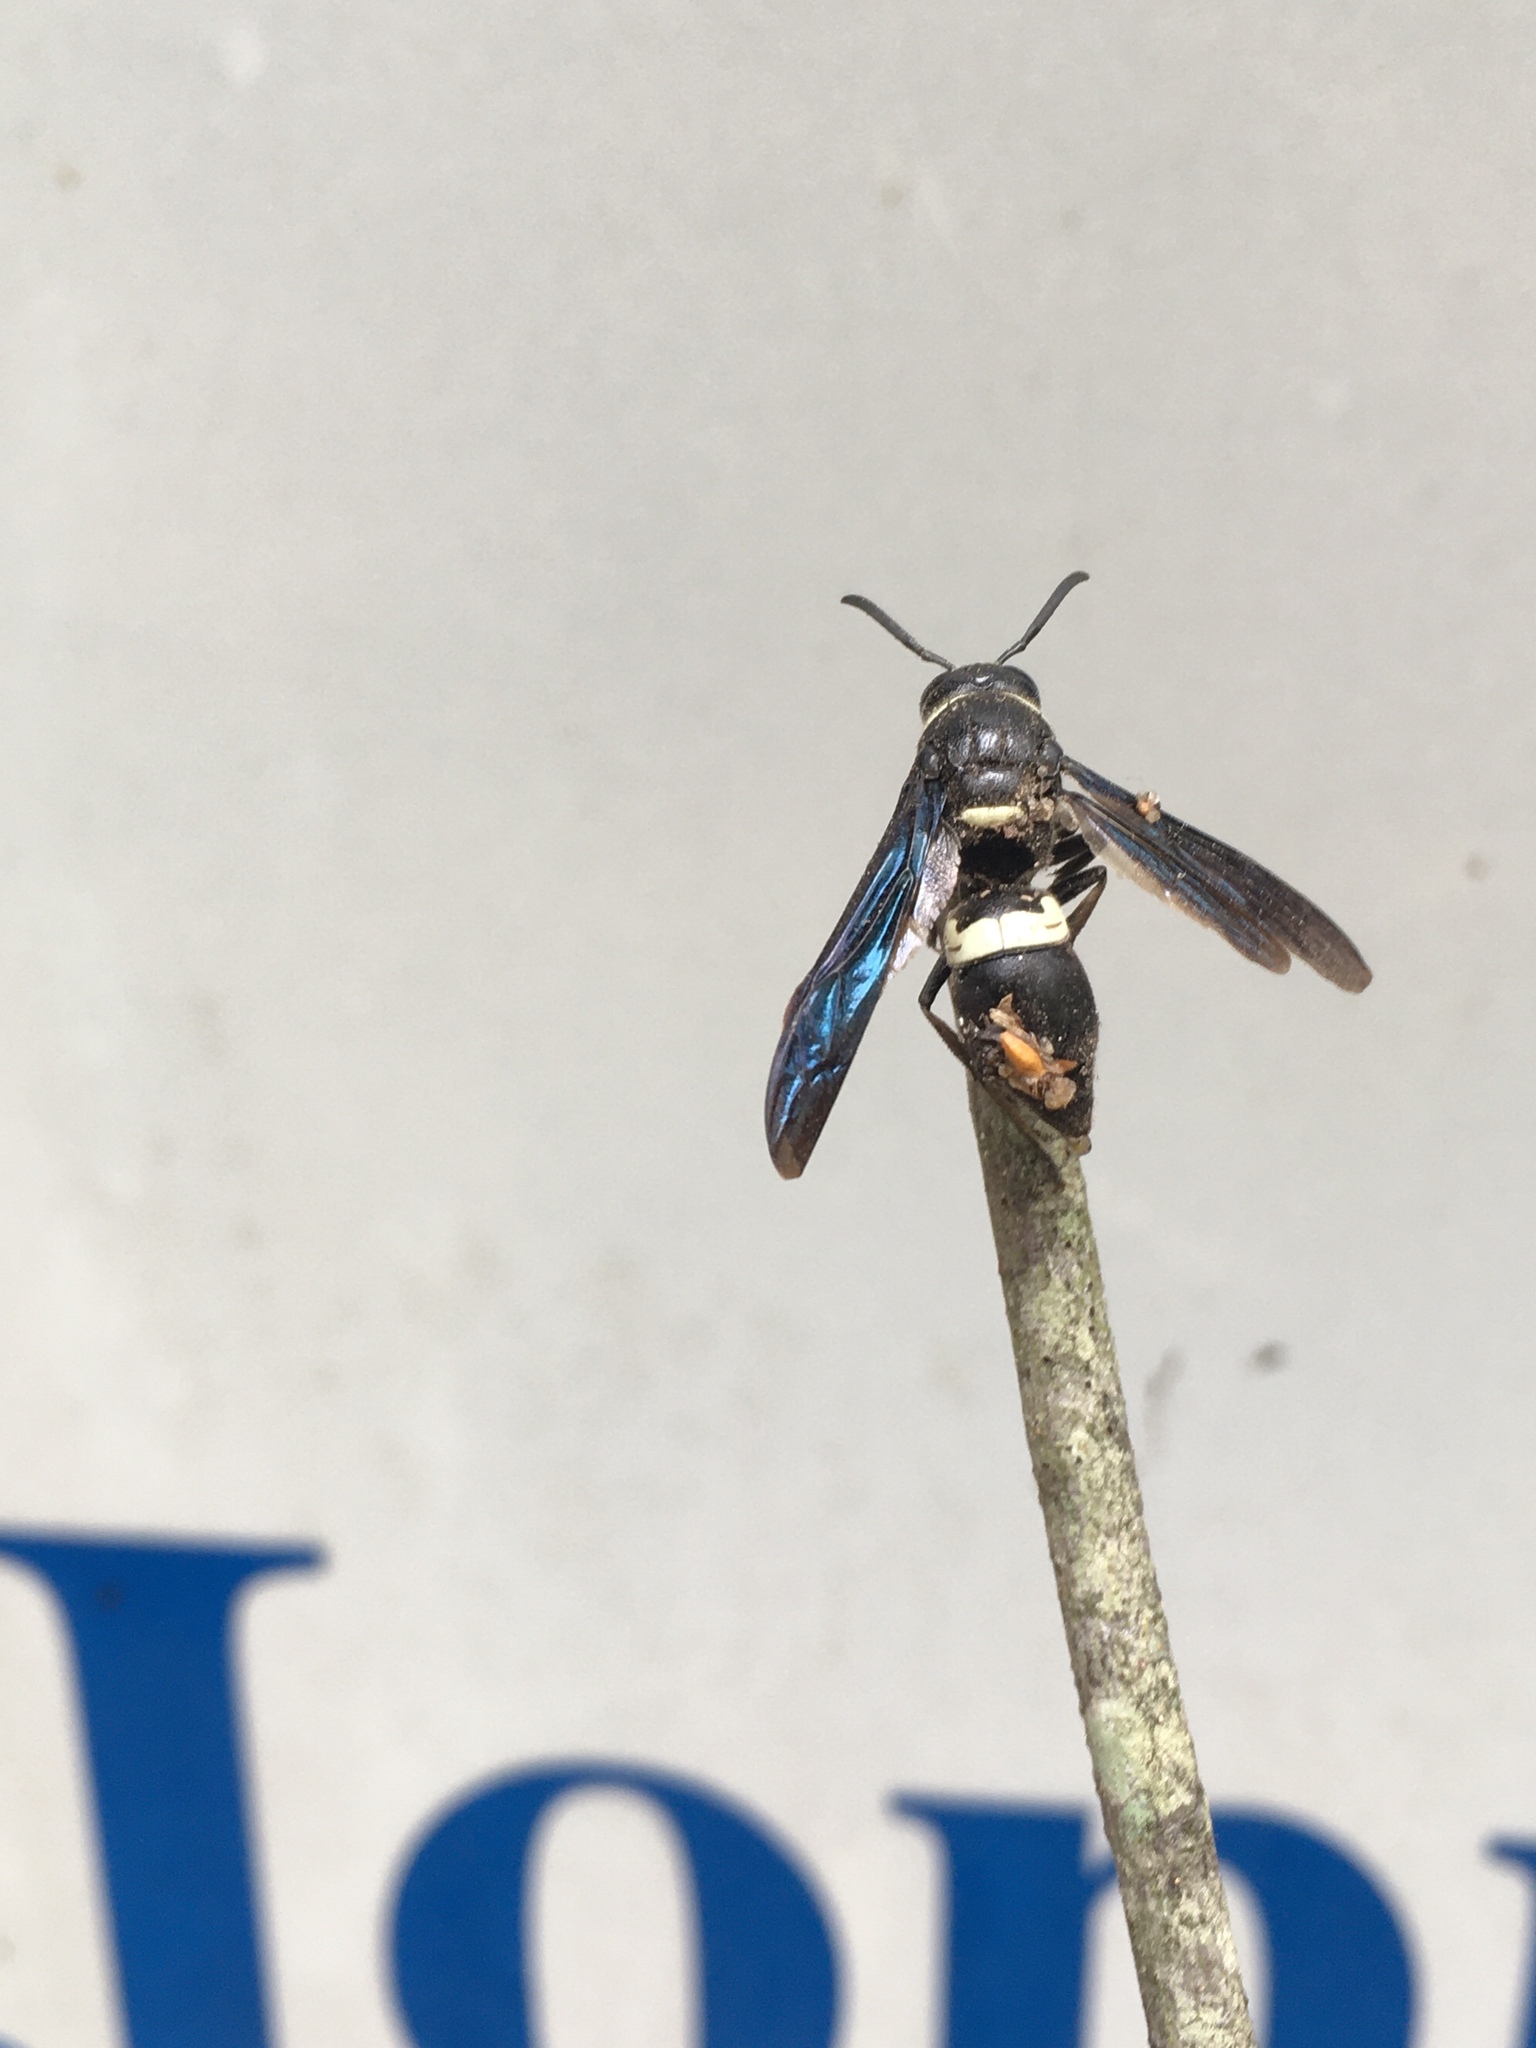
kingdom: Animalia
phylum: Arthropoda
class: Insecta
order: Hymenoptera
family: Eumenidae
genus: Monobia
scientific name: Monobia quadridens
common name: Four-toothed mason wasp
